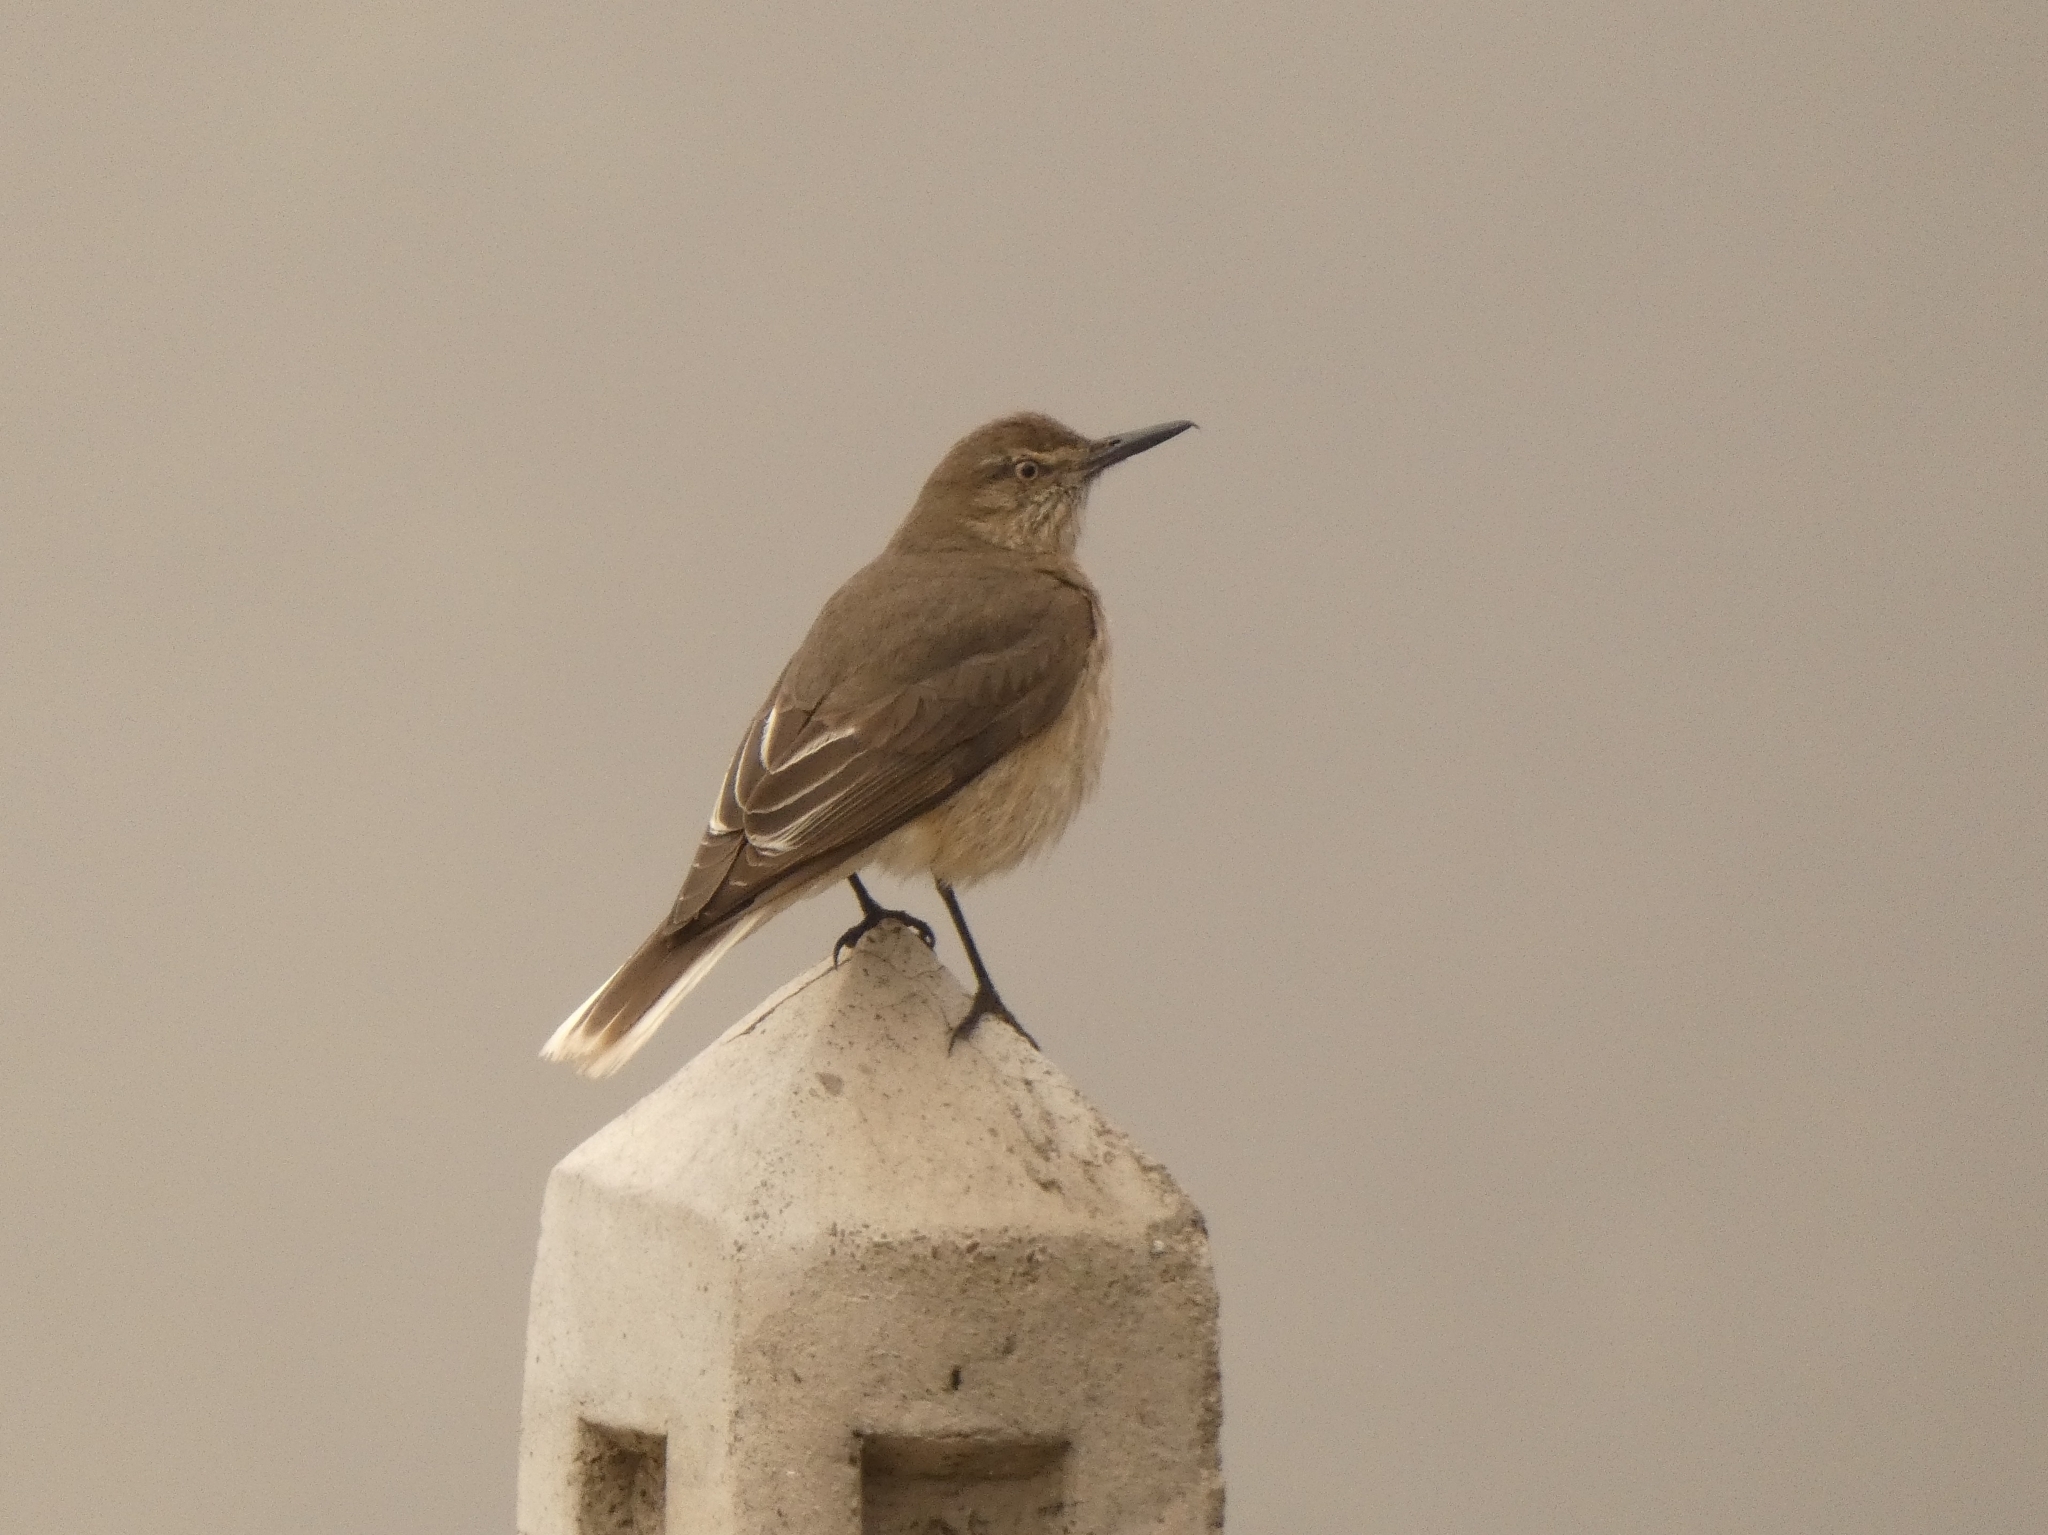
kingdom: Animalia
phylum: Chordata
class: Aves
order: Passeriformes
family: Tyrannidae
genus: Agriornis
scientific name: Agriornis montanus
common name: Black-billed shrike-tyrant
